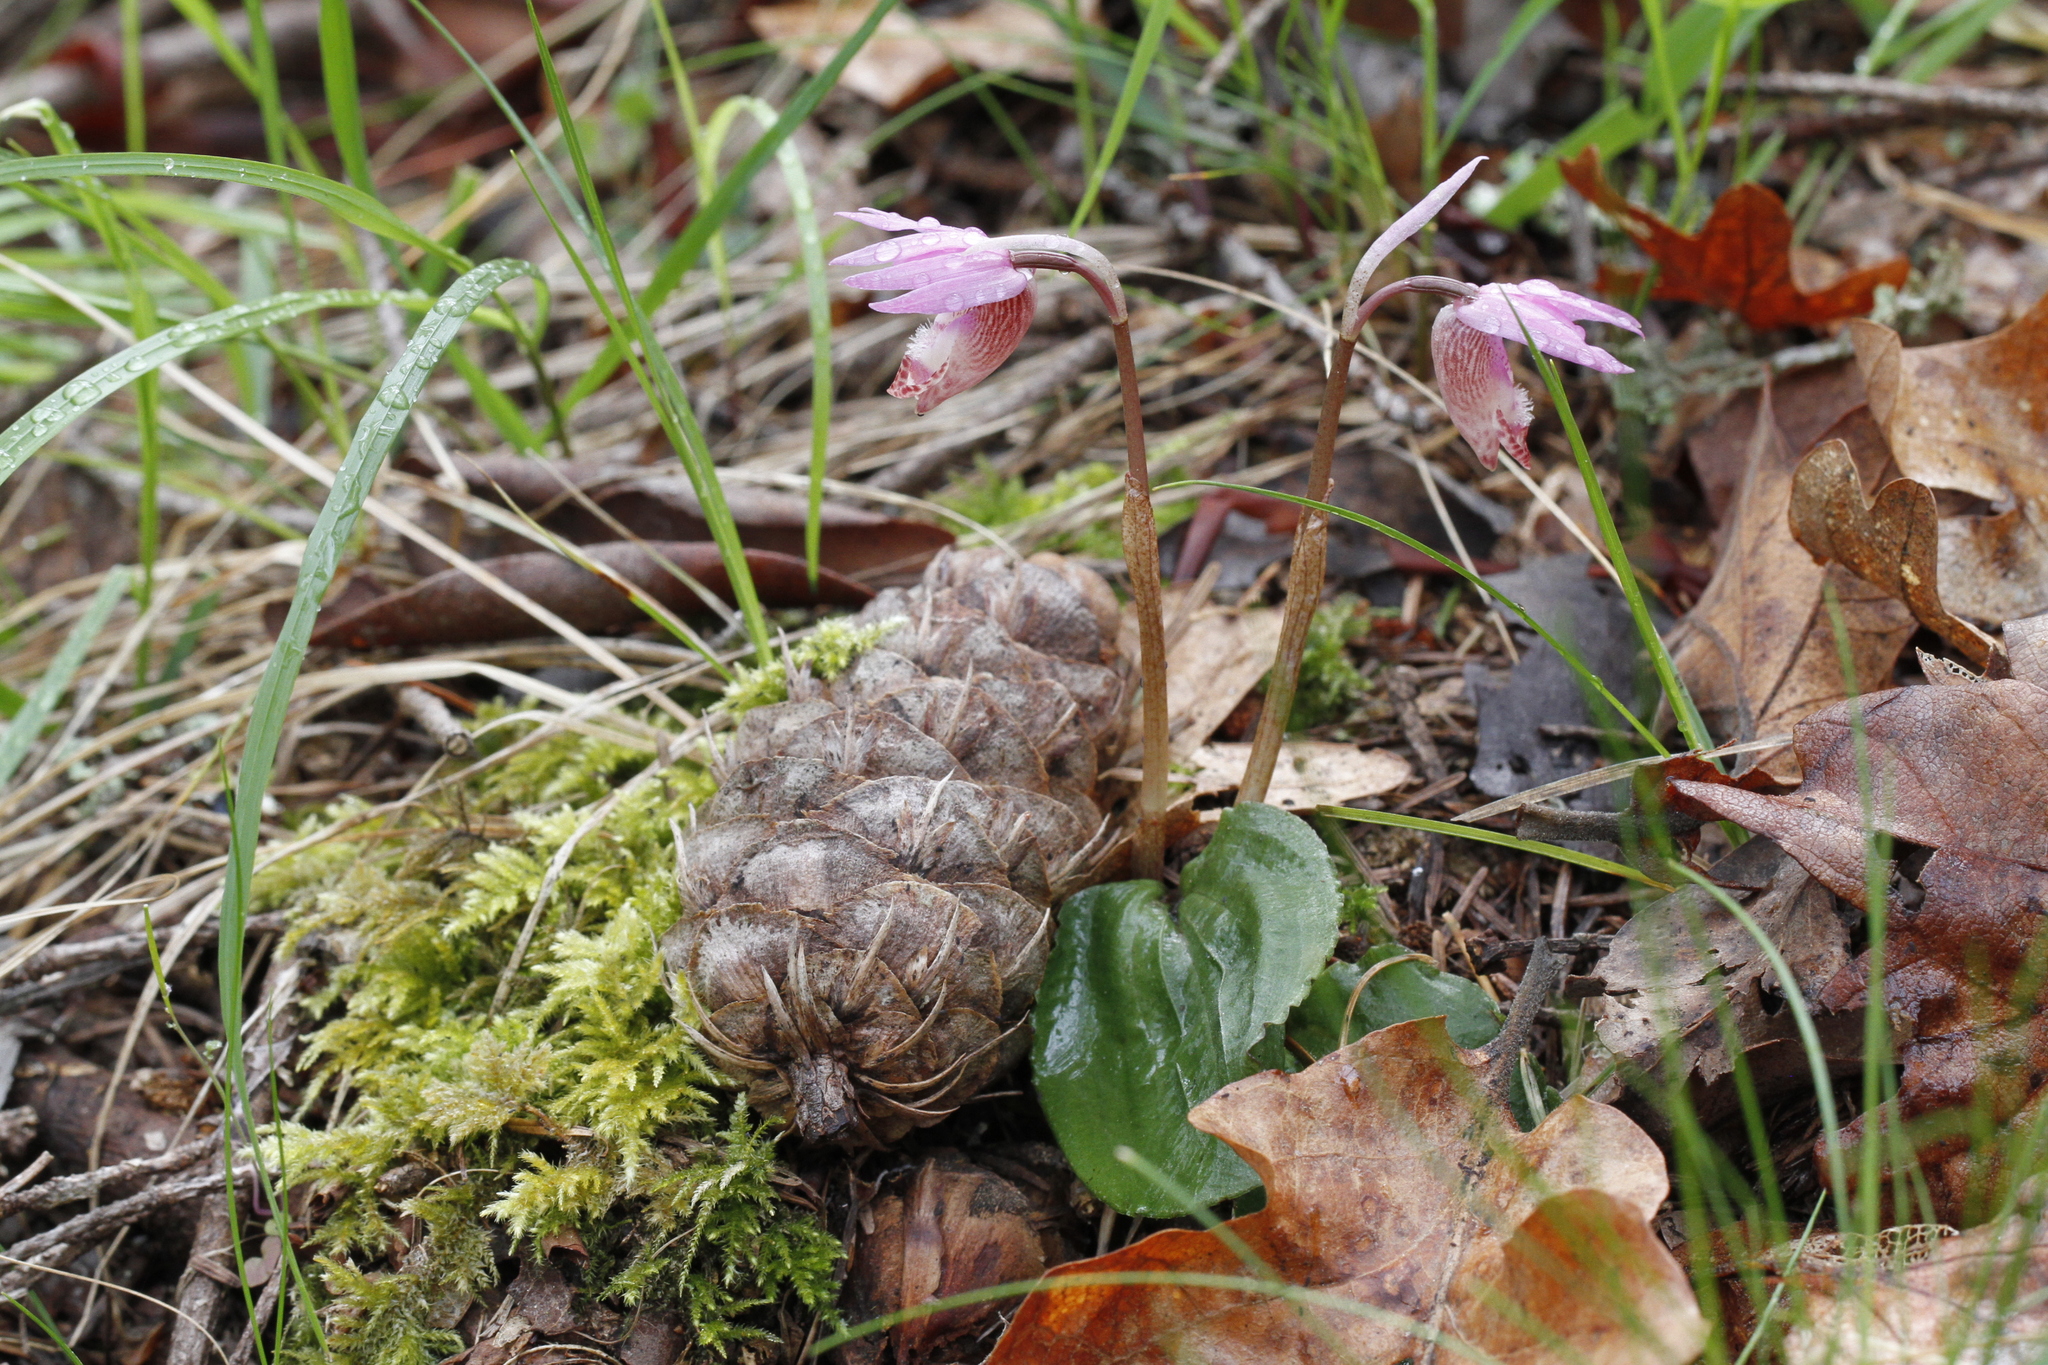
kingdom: Plantae
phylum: Tracheophyta
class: Liliopsida
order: Asparagales
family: Orchidaceae
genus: Calypso
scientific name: Calypso bulbosa
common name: Calypso
